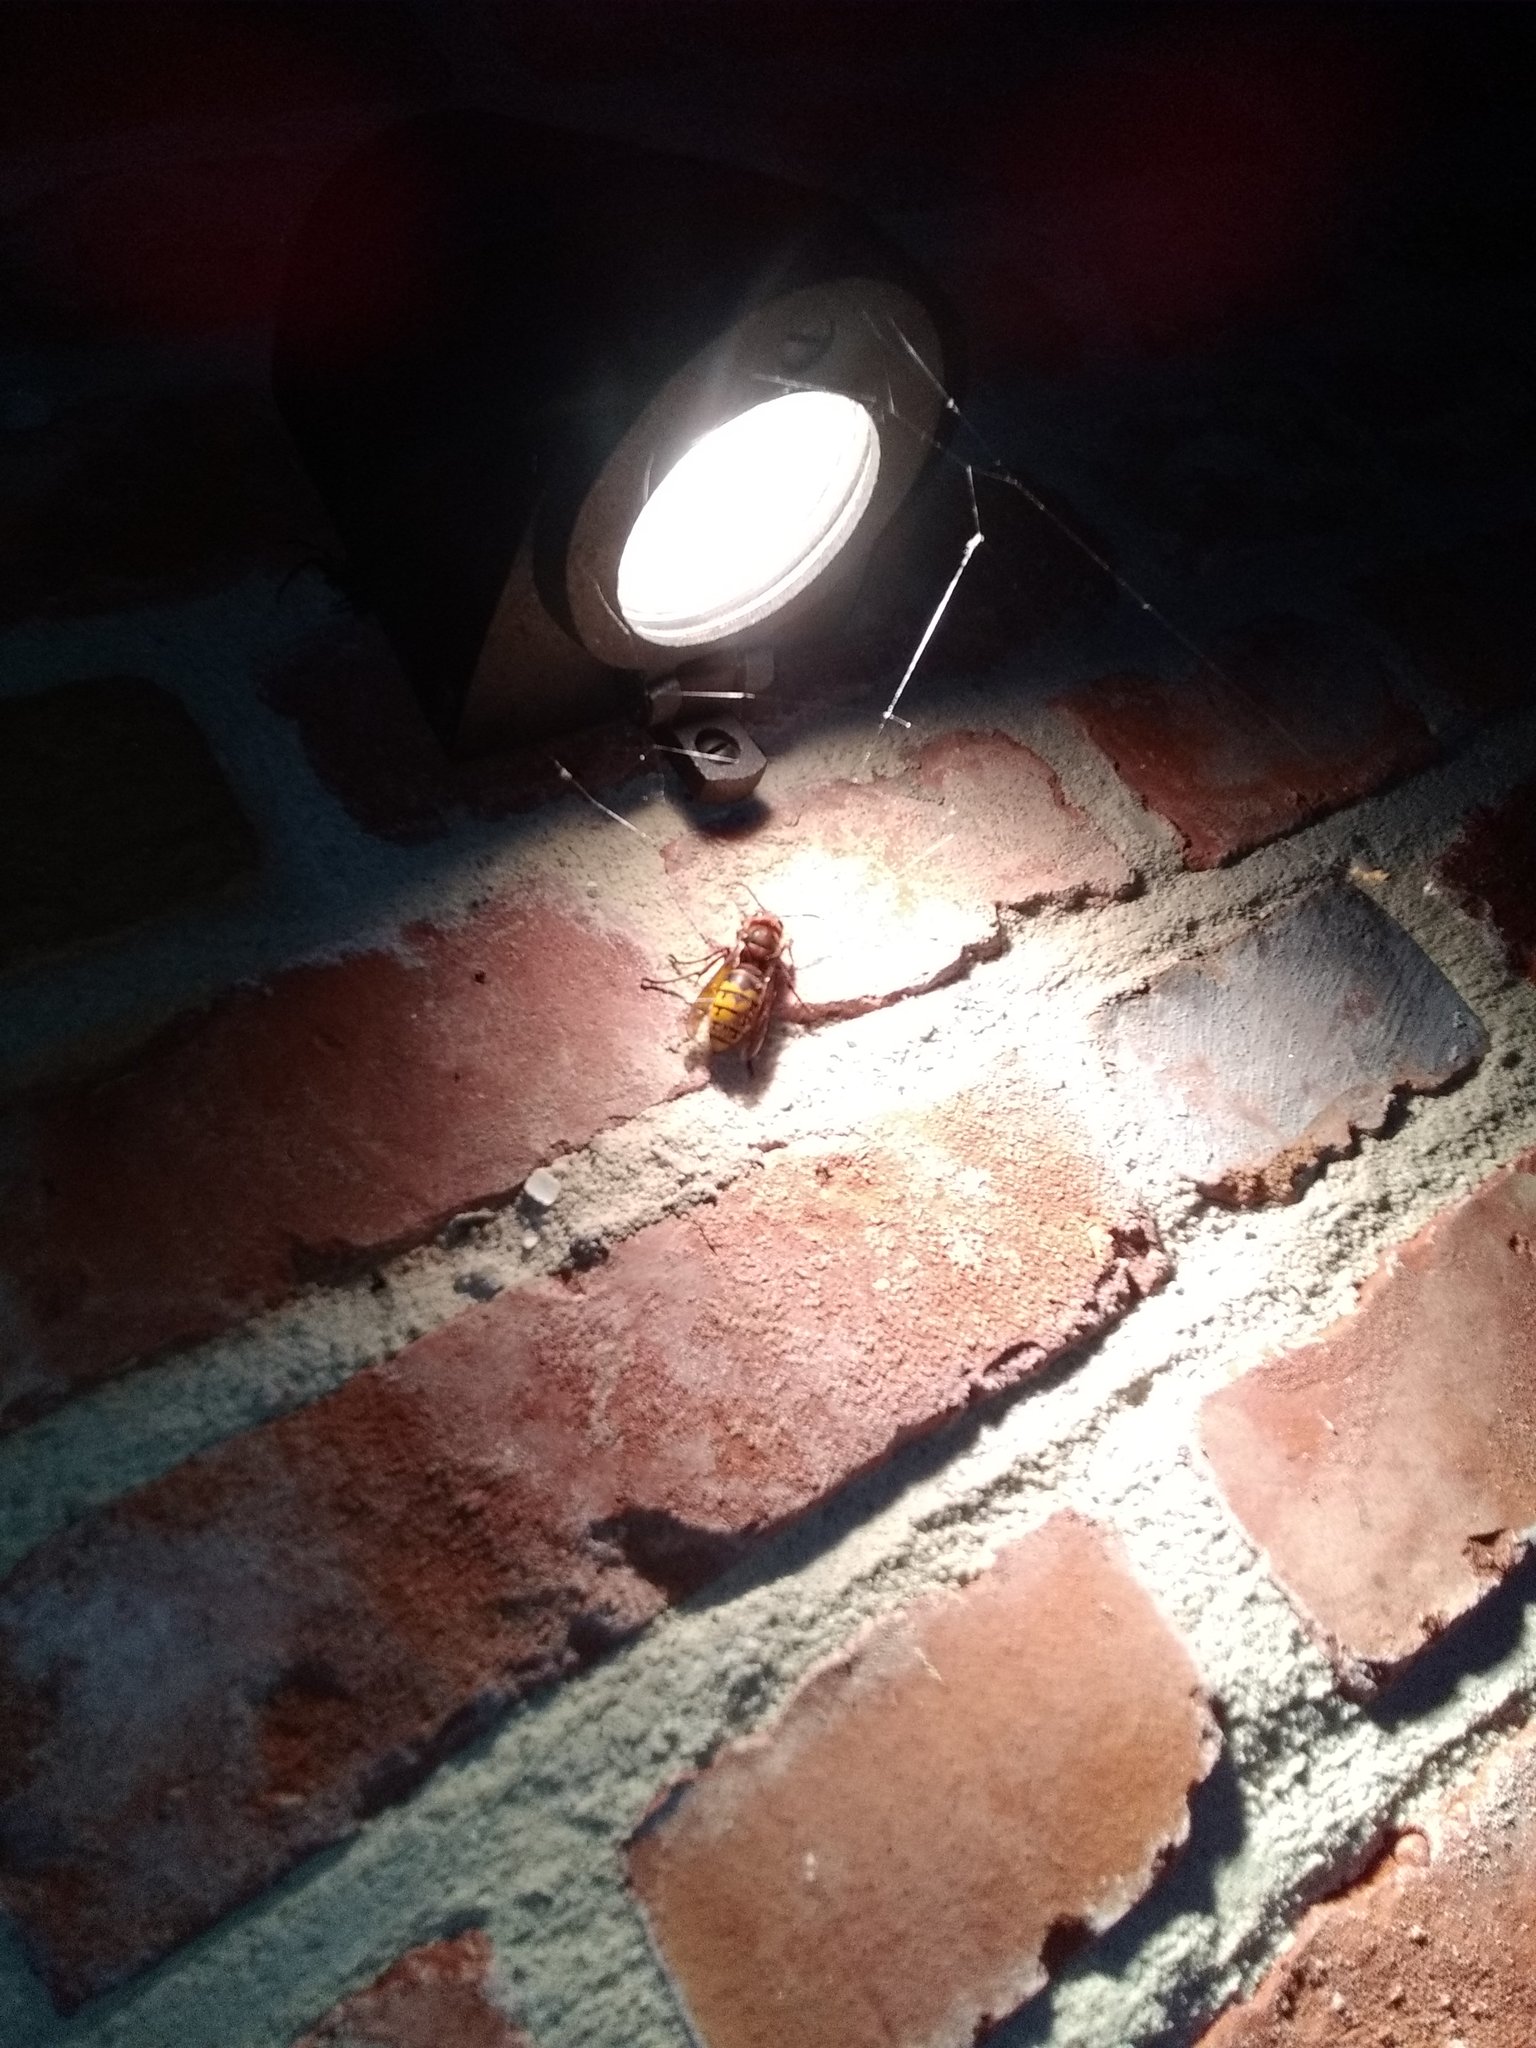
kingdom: Animalia
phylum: Arthropoda
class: Insecta
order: Hymenoptera
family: Vespidae
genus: Vespa
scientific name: Vespa crabro
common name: Hornet
